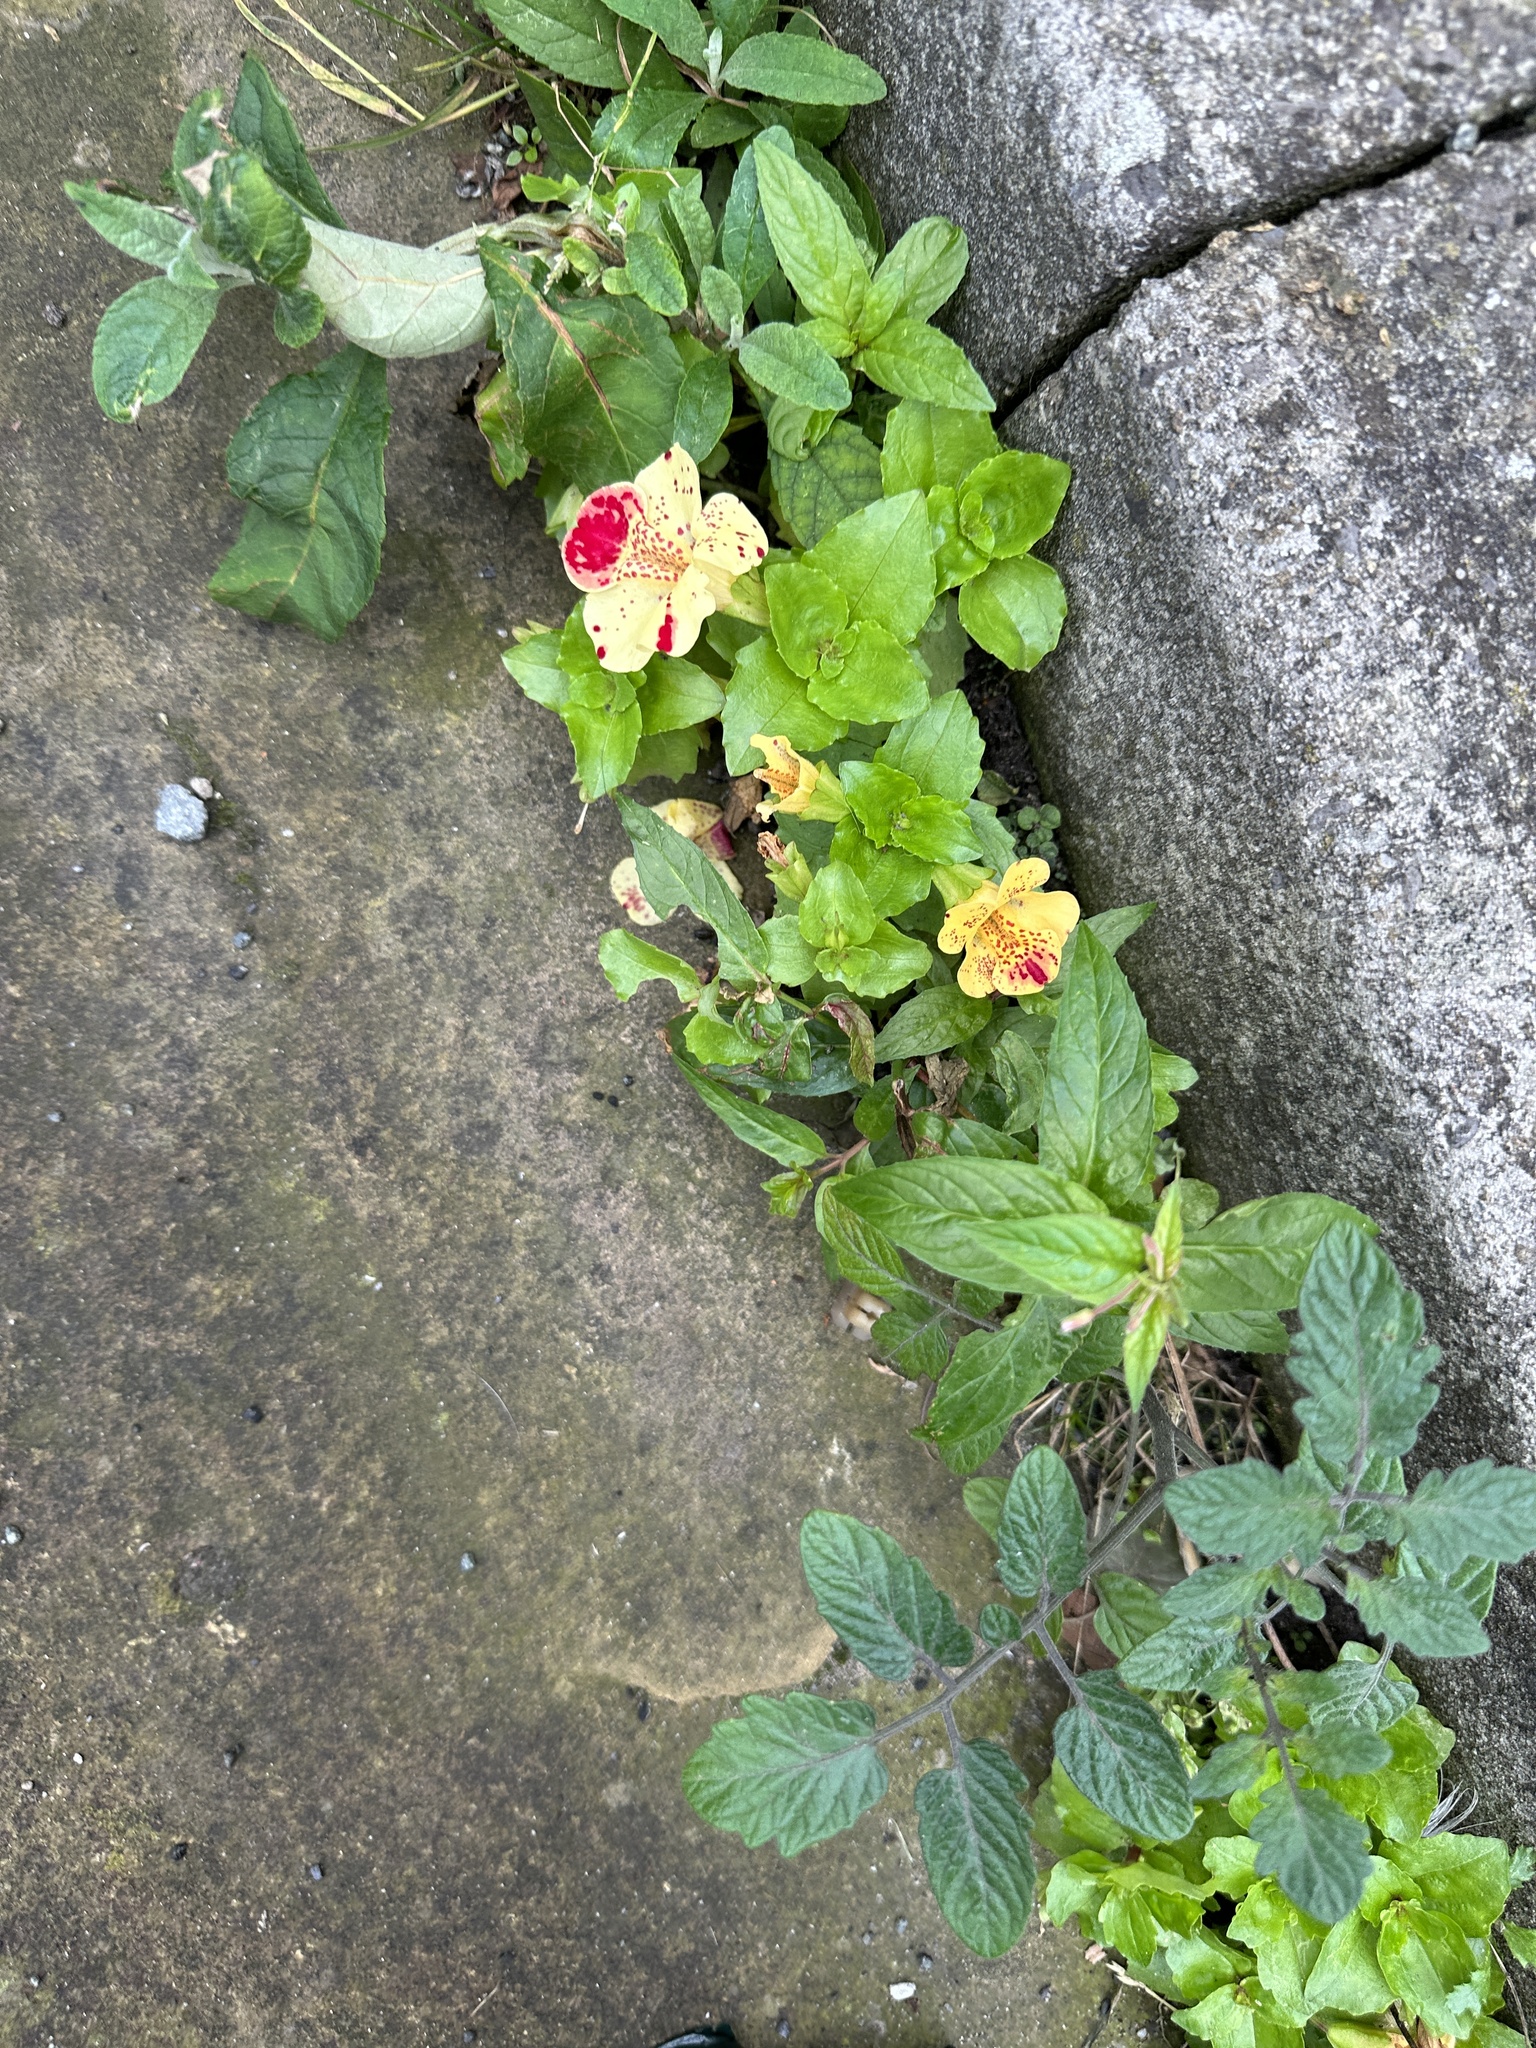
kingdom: Plantae
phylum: Tracheophyta
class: Magnoliopsida
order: Lamiales
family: Phrymaceae
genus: Erythranthe
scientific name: Erythranthe hybrida
